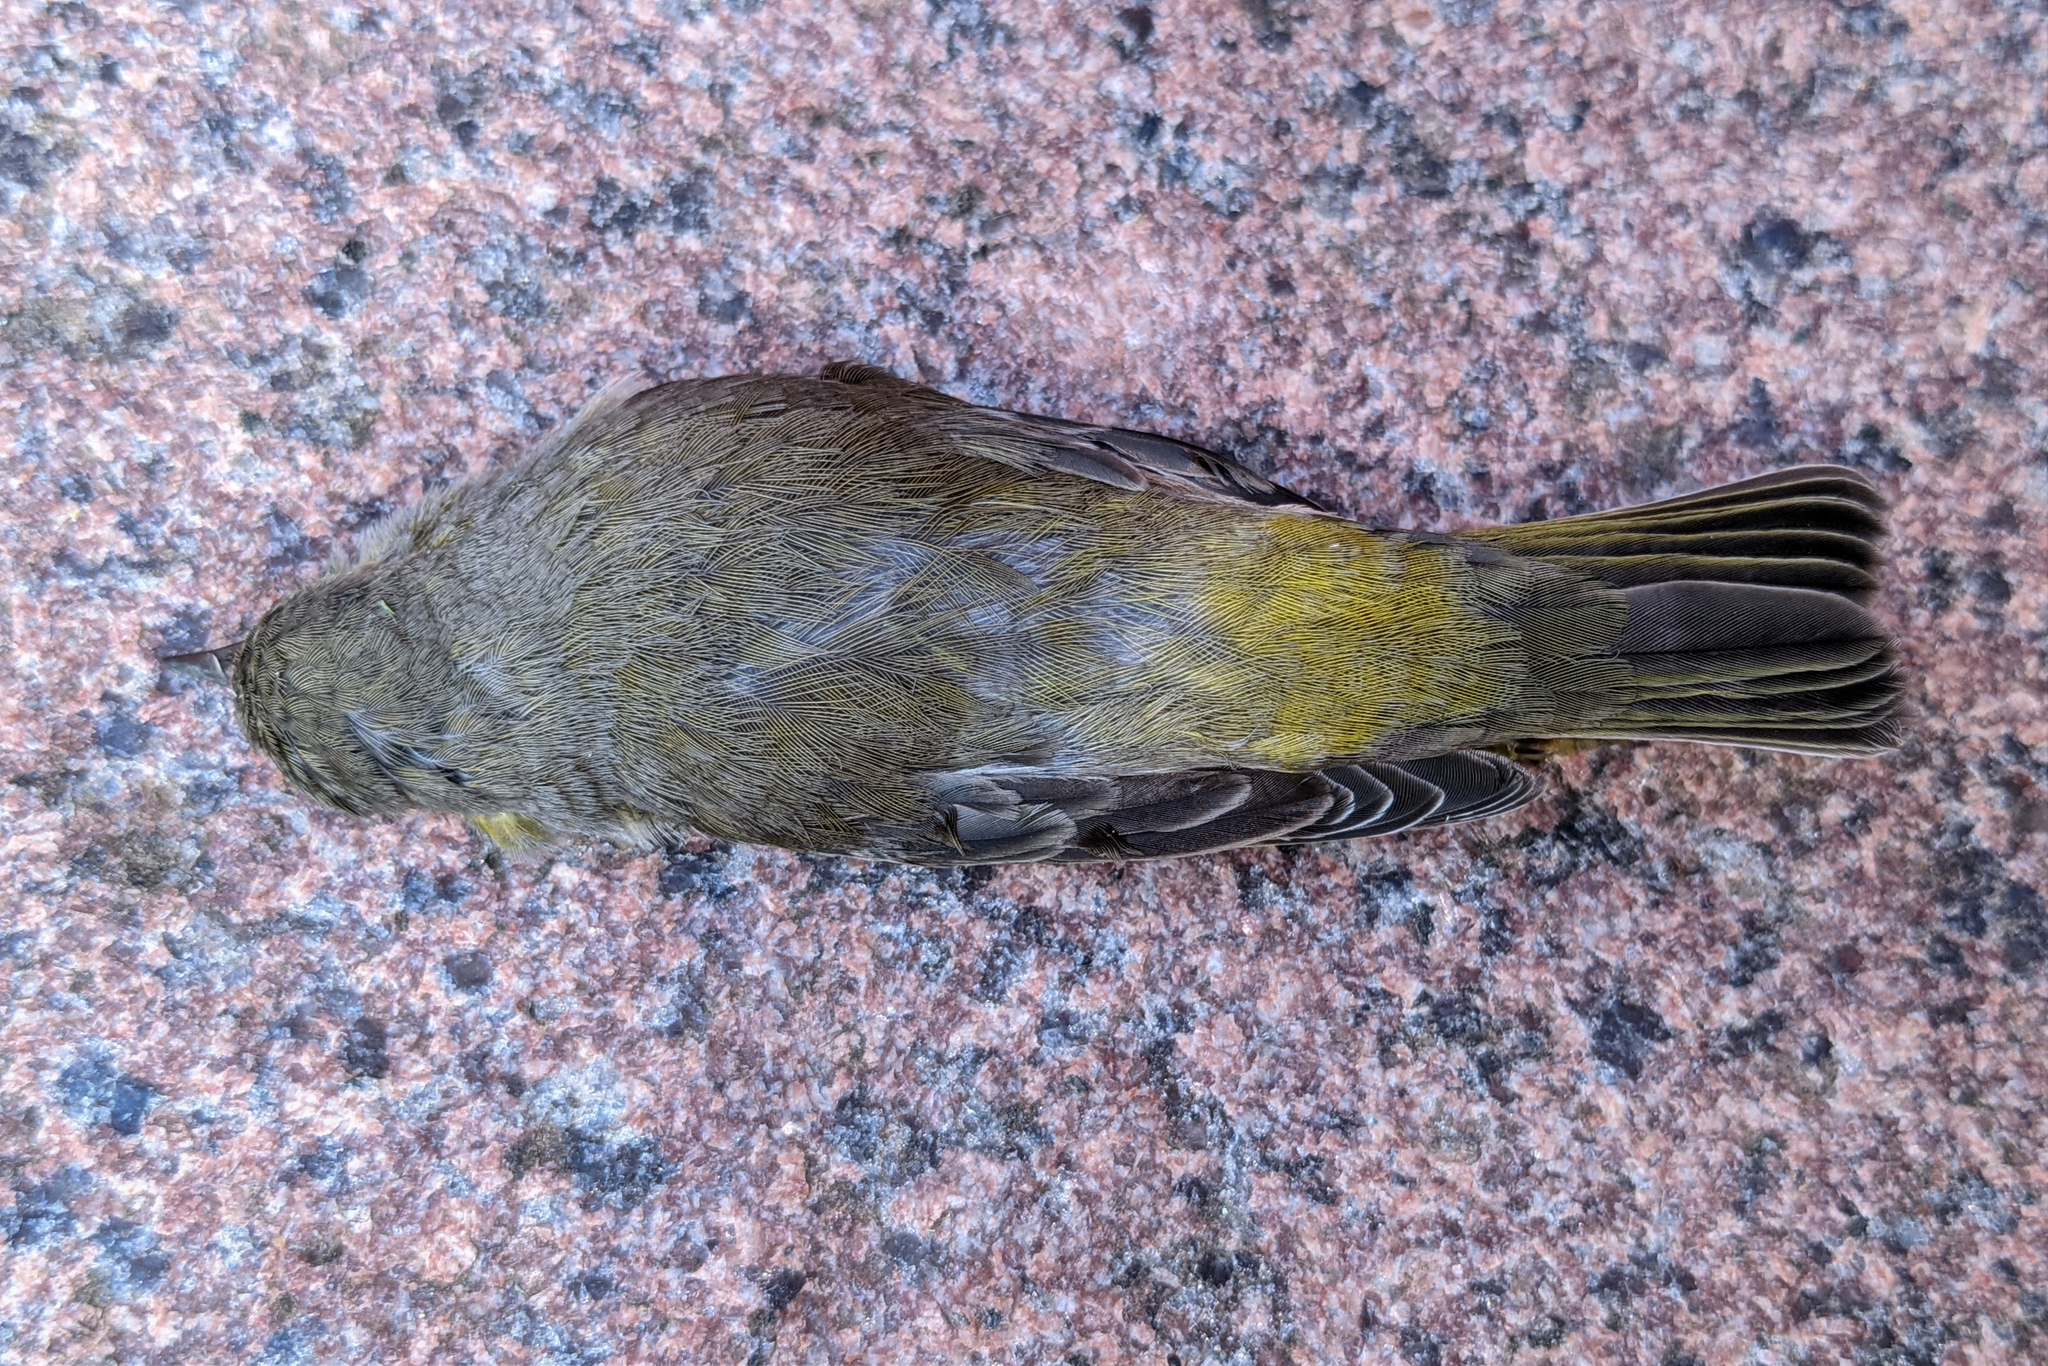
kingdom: Animalia
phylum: Chordata
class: Aves
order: Passeriformes
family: Parulidae
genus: Setophaga
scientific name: Setophaga tigrina
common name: Cape may warbler
